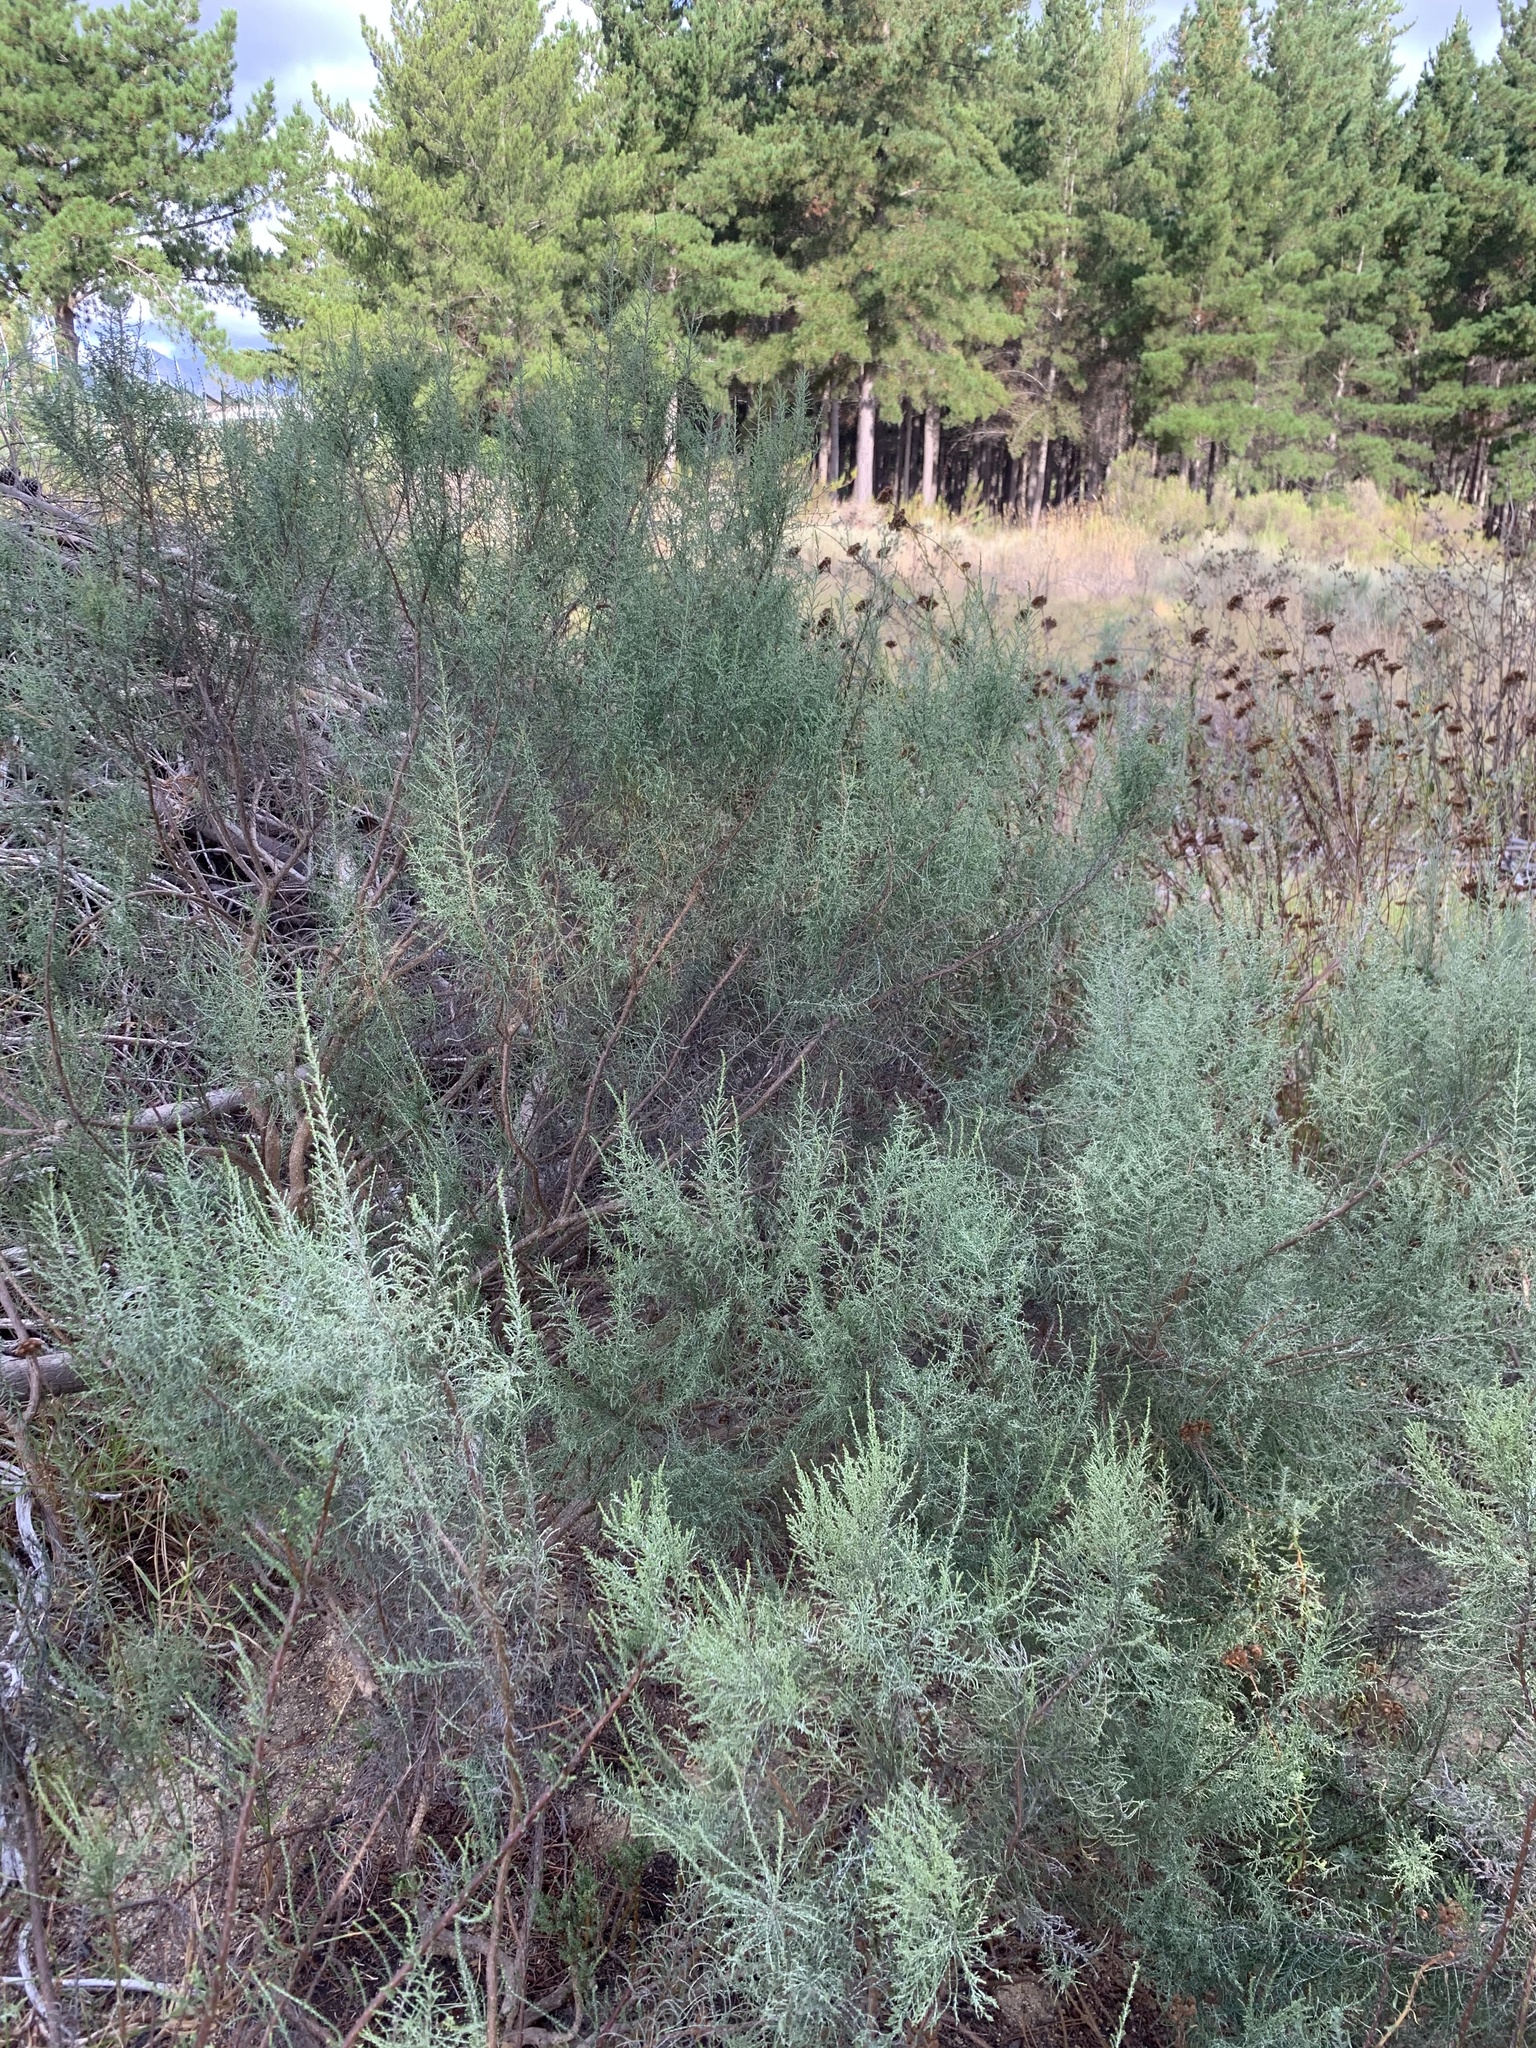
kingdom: Plantae
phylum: Tracheophyta
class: Magnoliopsida
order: Asterales
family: Asteraceae
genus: Dicerothamnus
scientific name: Dicerothamnus rhinocerotis
